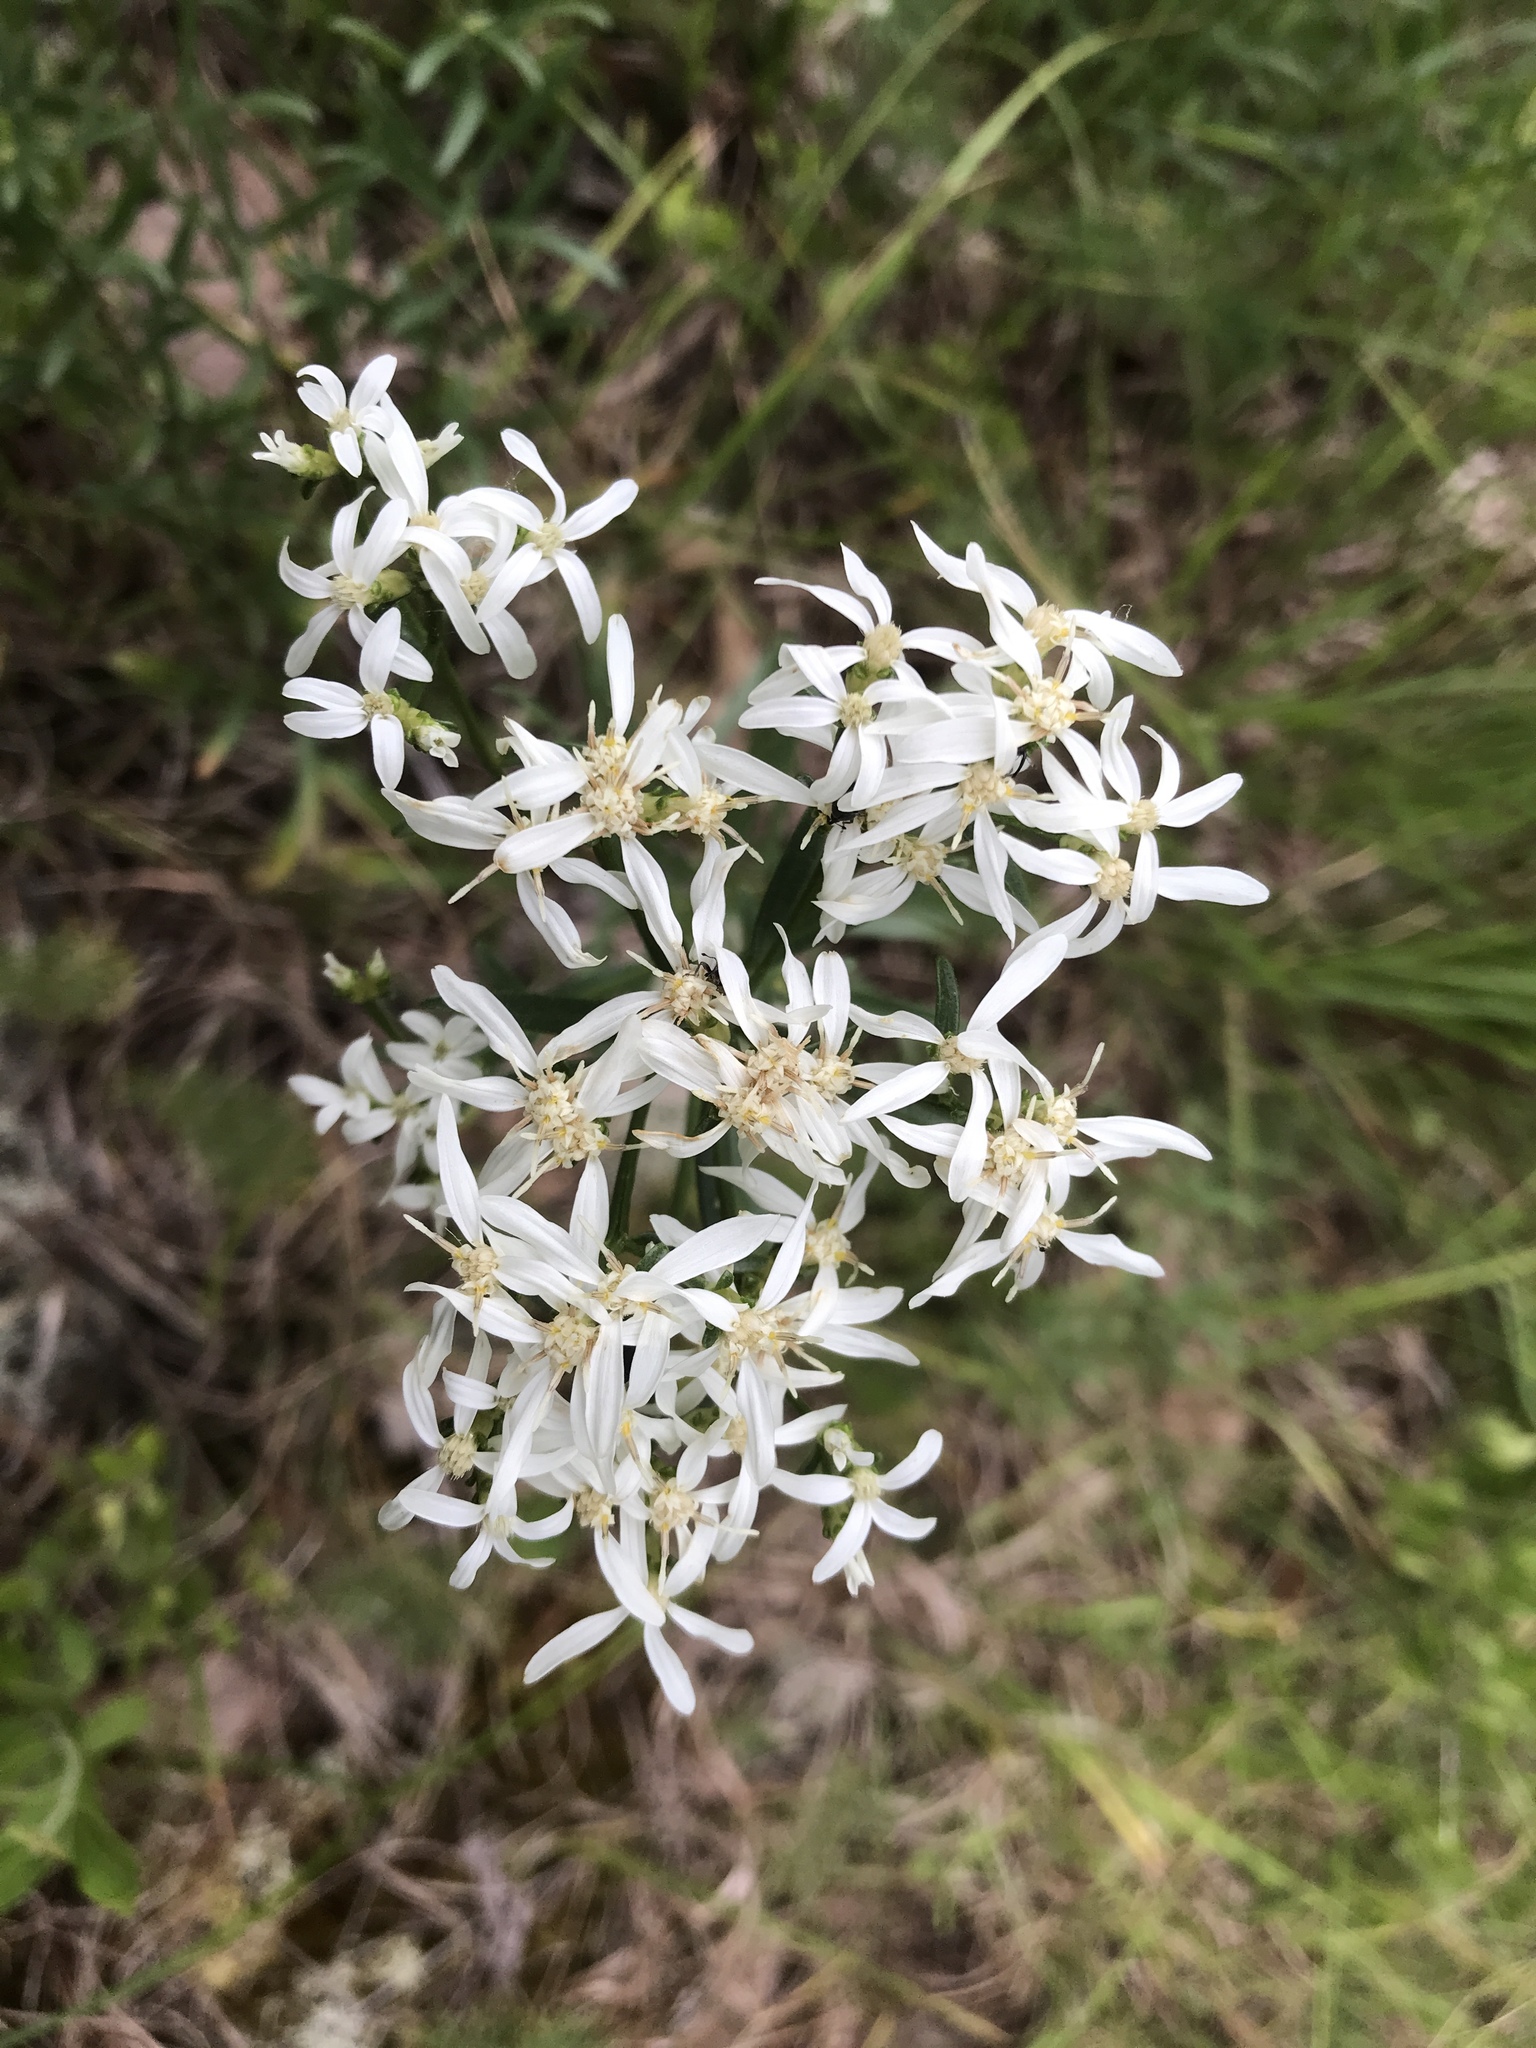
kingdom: Plantae
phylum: Tracheophyta
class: Magnoliopsida
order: Asterales
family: Asteraceae
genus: Sericocarpus
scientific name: Sericocarpus linifolius
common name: Narrow-leaf aster
